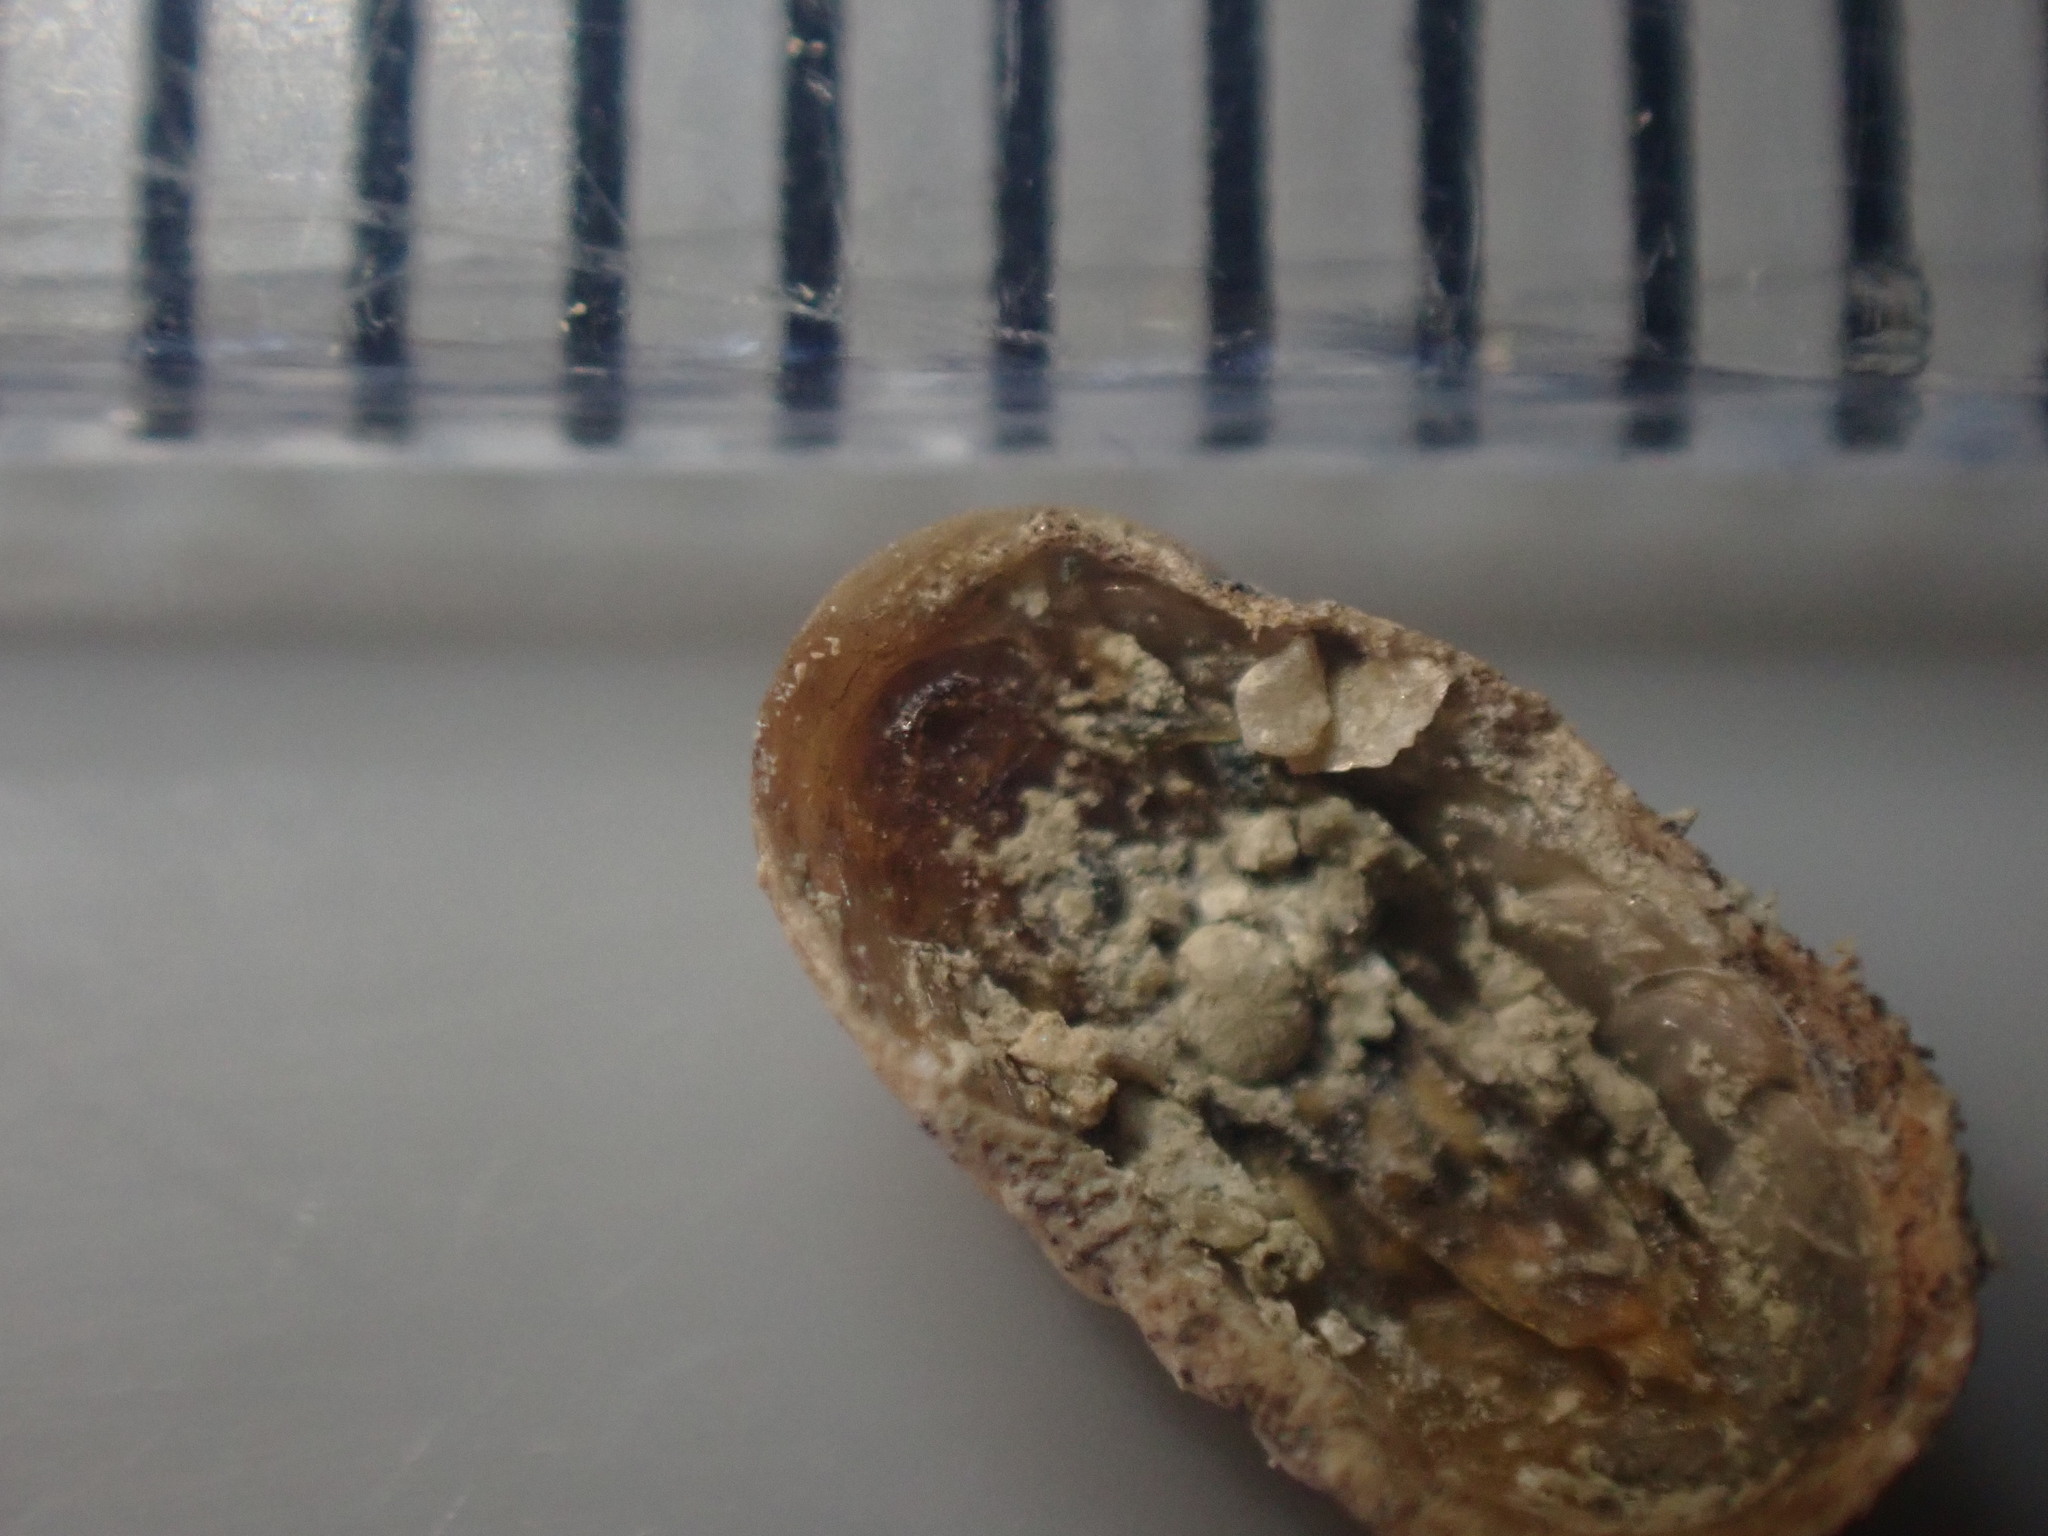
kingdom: Animalia
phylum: Mollusca
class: Polyplacophora
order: Lepidopleurida
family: Leptochitonidae
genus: Leptochiton
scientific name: Leptochiton inquinatus
